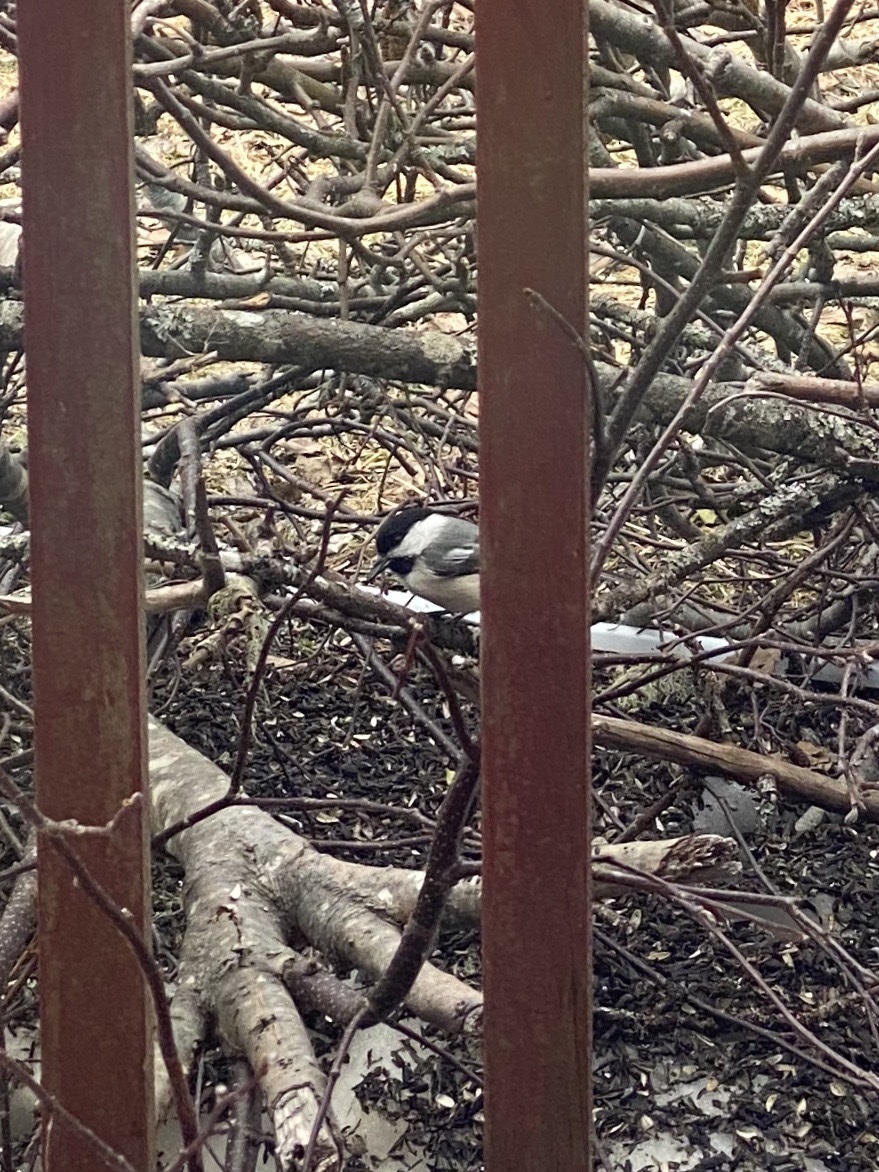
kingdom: Animalia
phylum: Chordata
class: Aves
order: Passeriformes
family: Paridae
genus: Poecile
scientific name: Poecile atricapillus
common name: Black-capped chickadee
